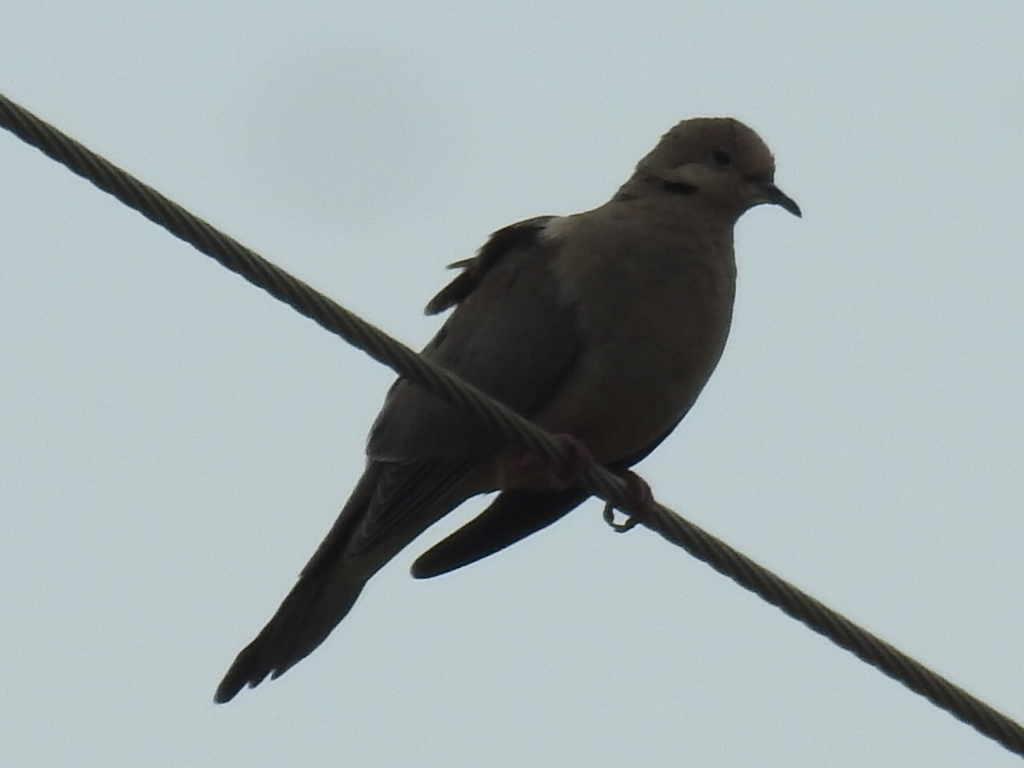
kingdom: Animalia
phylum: Chordata
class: Aves
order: Columbiformes
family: Columbidae
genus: Zenaida
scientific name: Zenaida macroura
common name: Mourning dove
